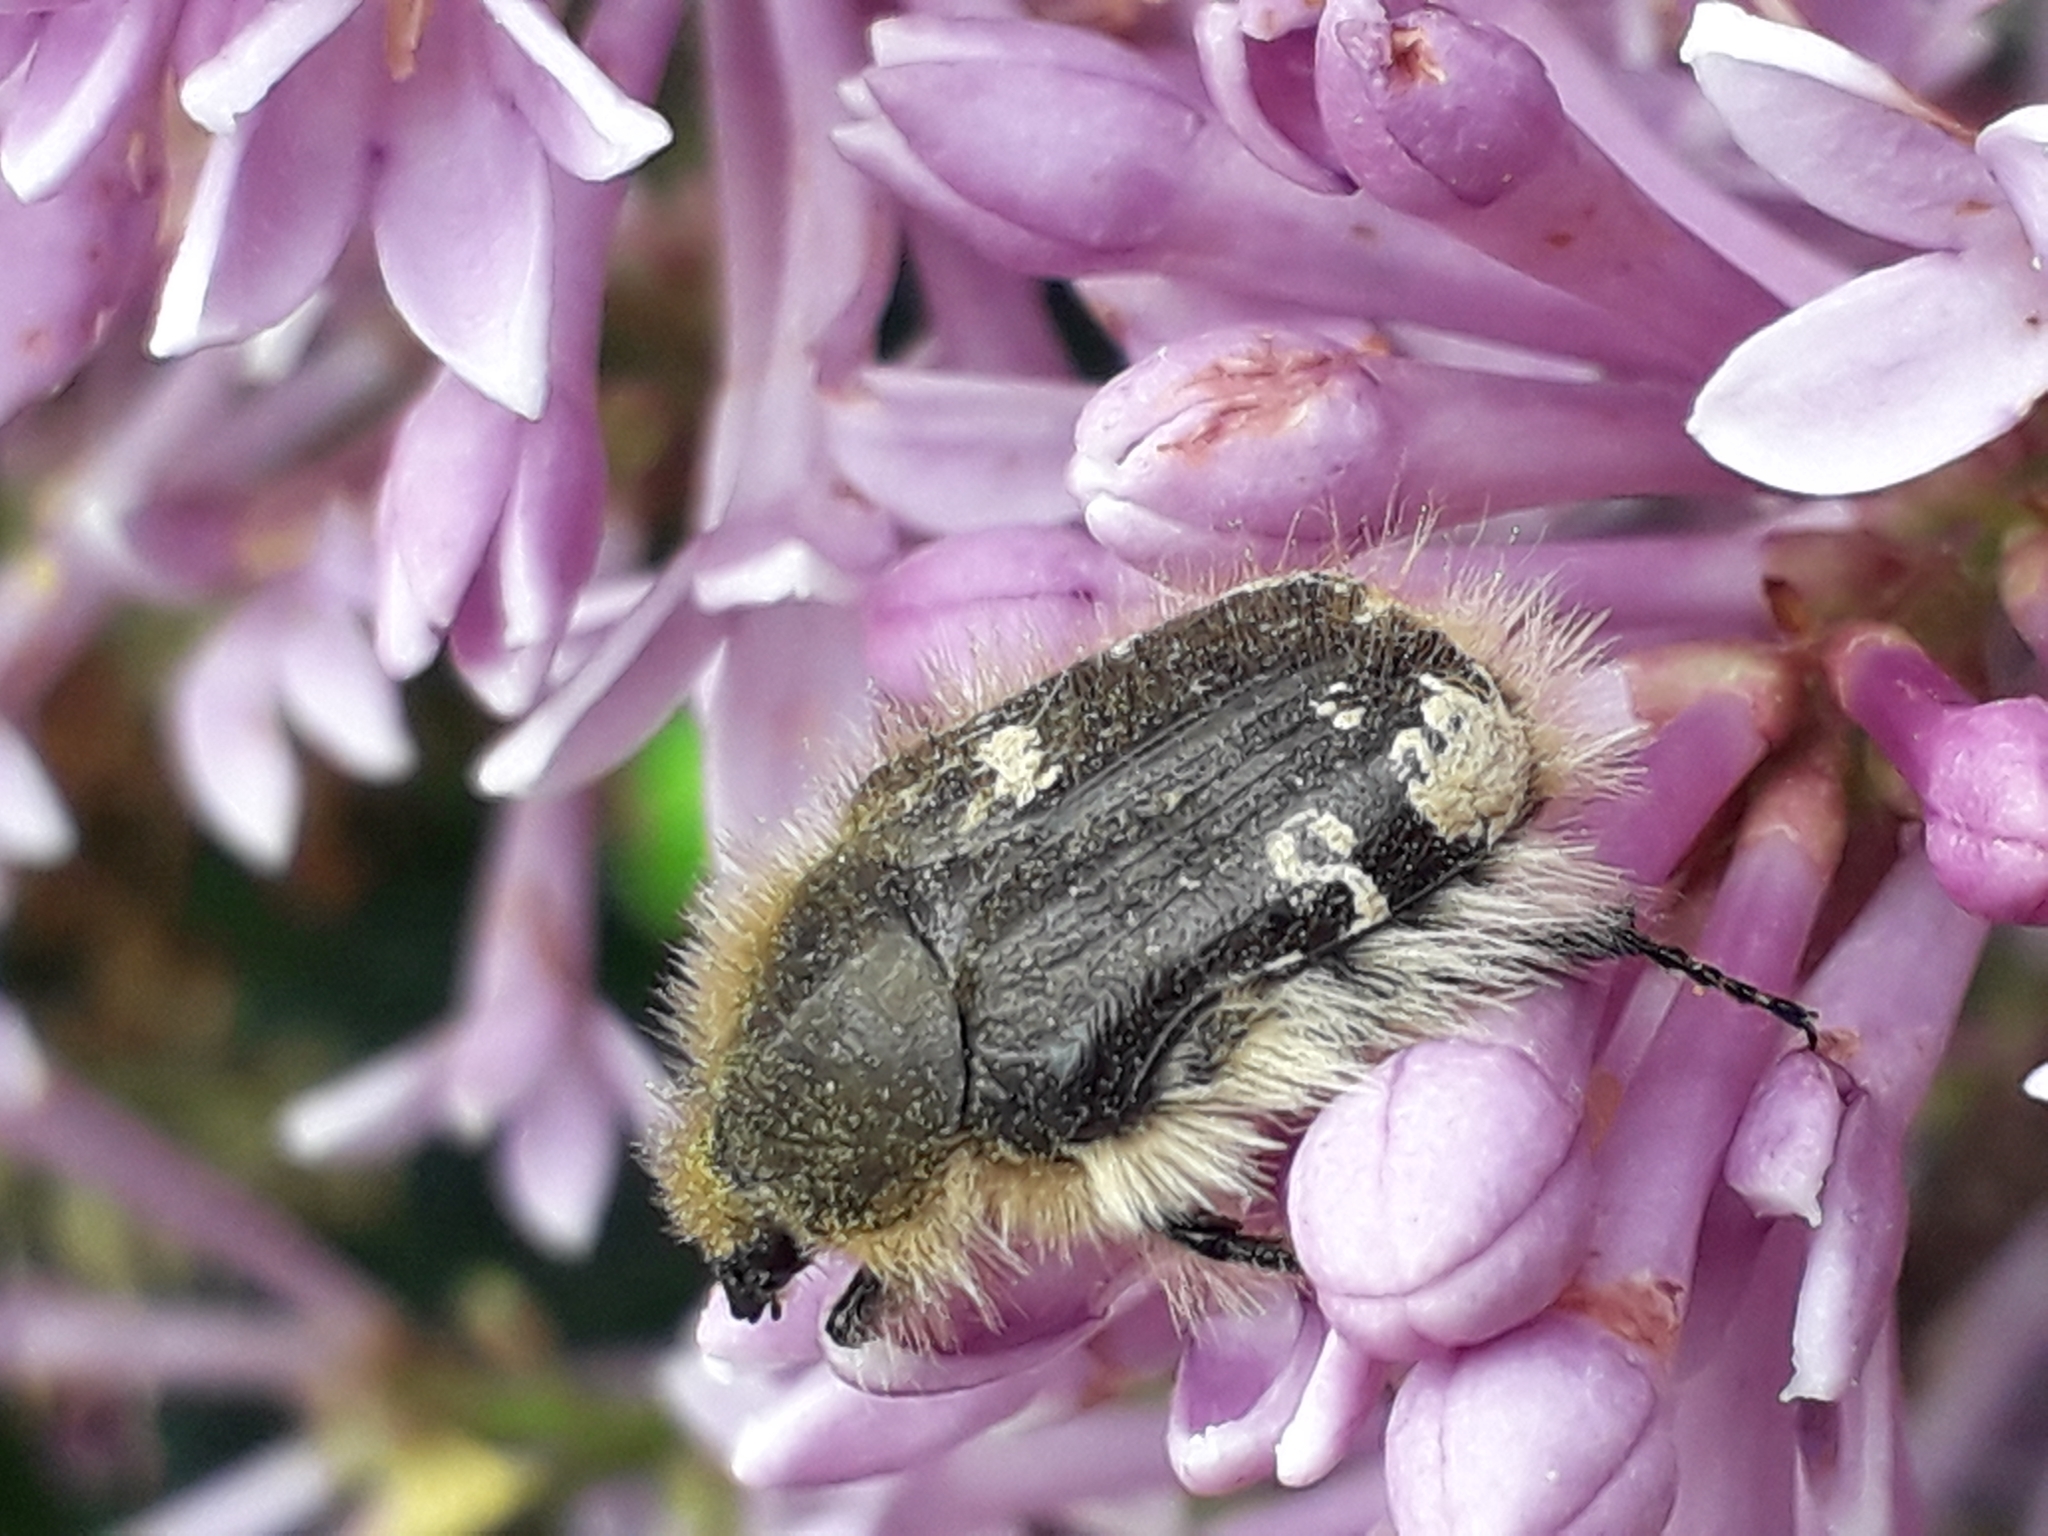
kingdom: Animalia
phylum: Arthropoda
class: Insecta
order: Coleoptera
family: Scarabaeidae
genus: Tropinota
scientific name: Tropinota hirta
